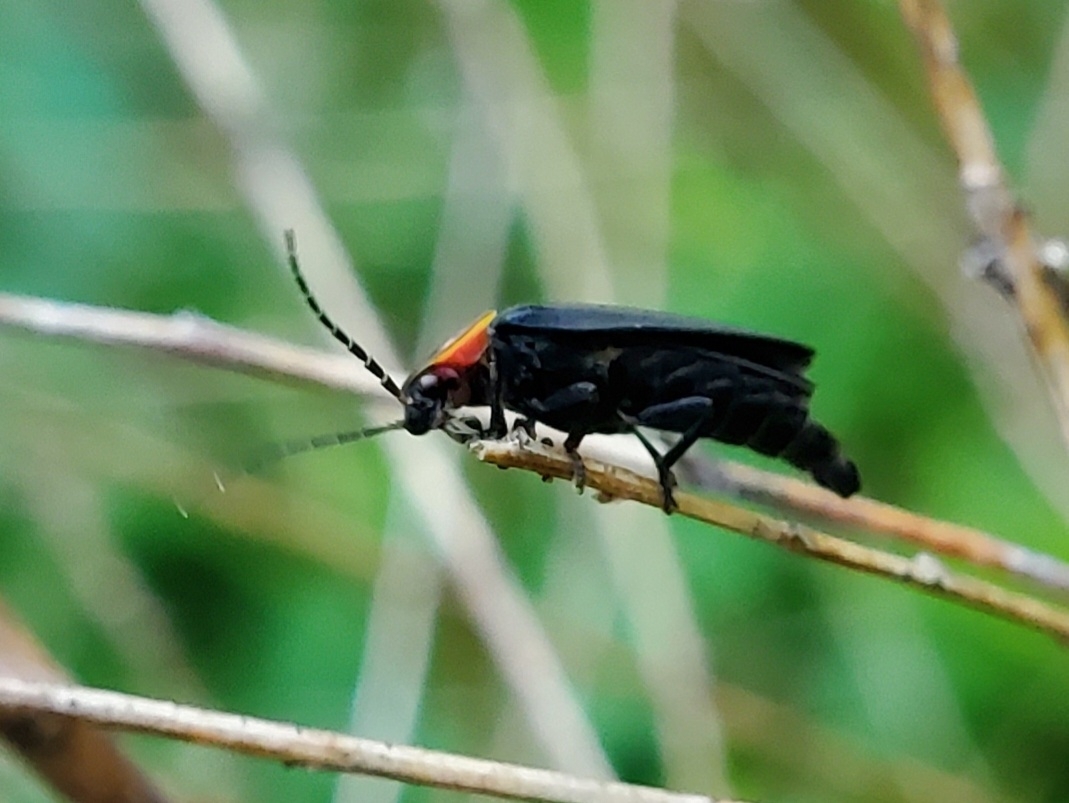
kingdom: Animalia
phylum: Arthropoda
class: Insecta
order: Coleoptera
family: Lampyridae
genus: Lucidota
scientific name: Lucidota atra
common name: Black firefly
